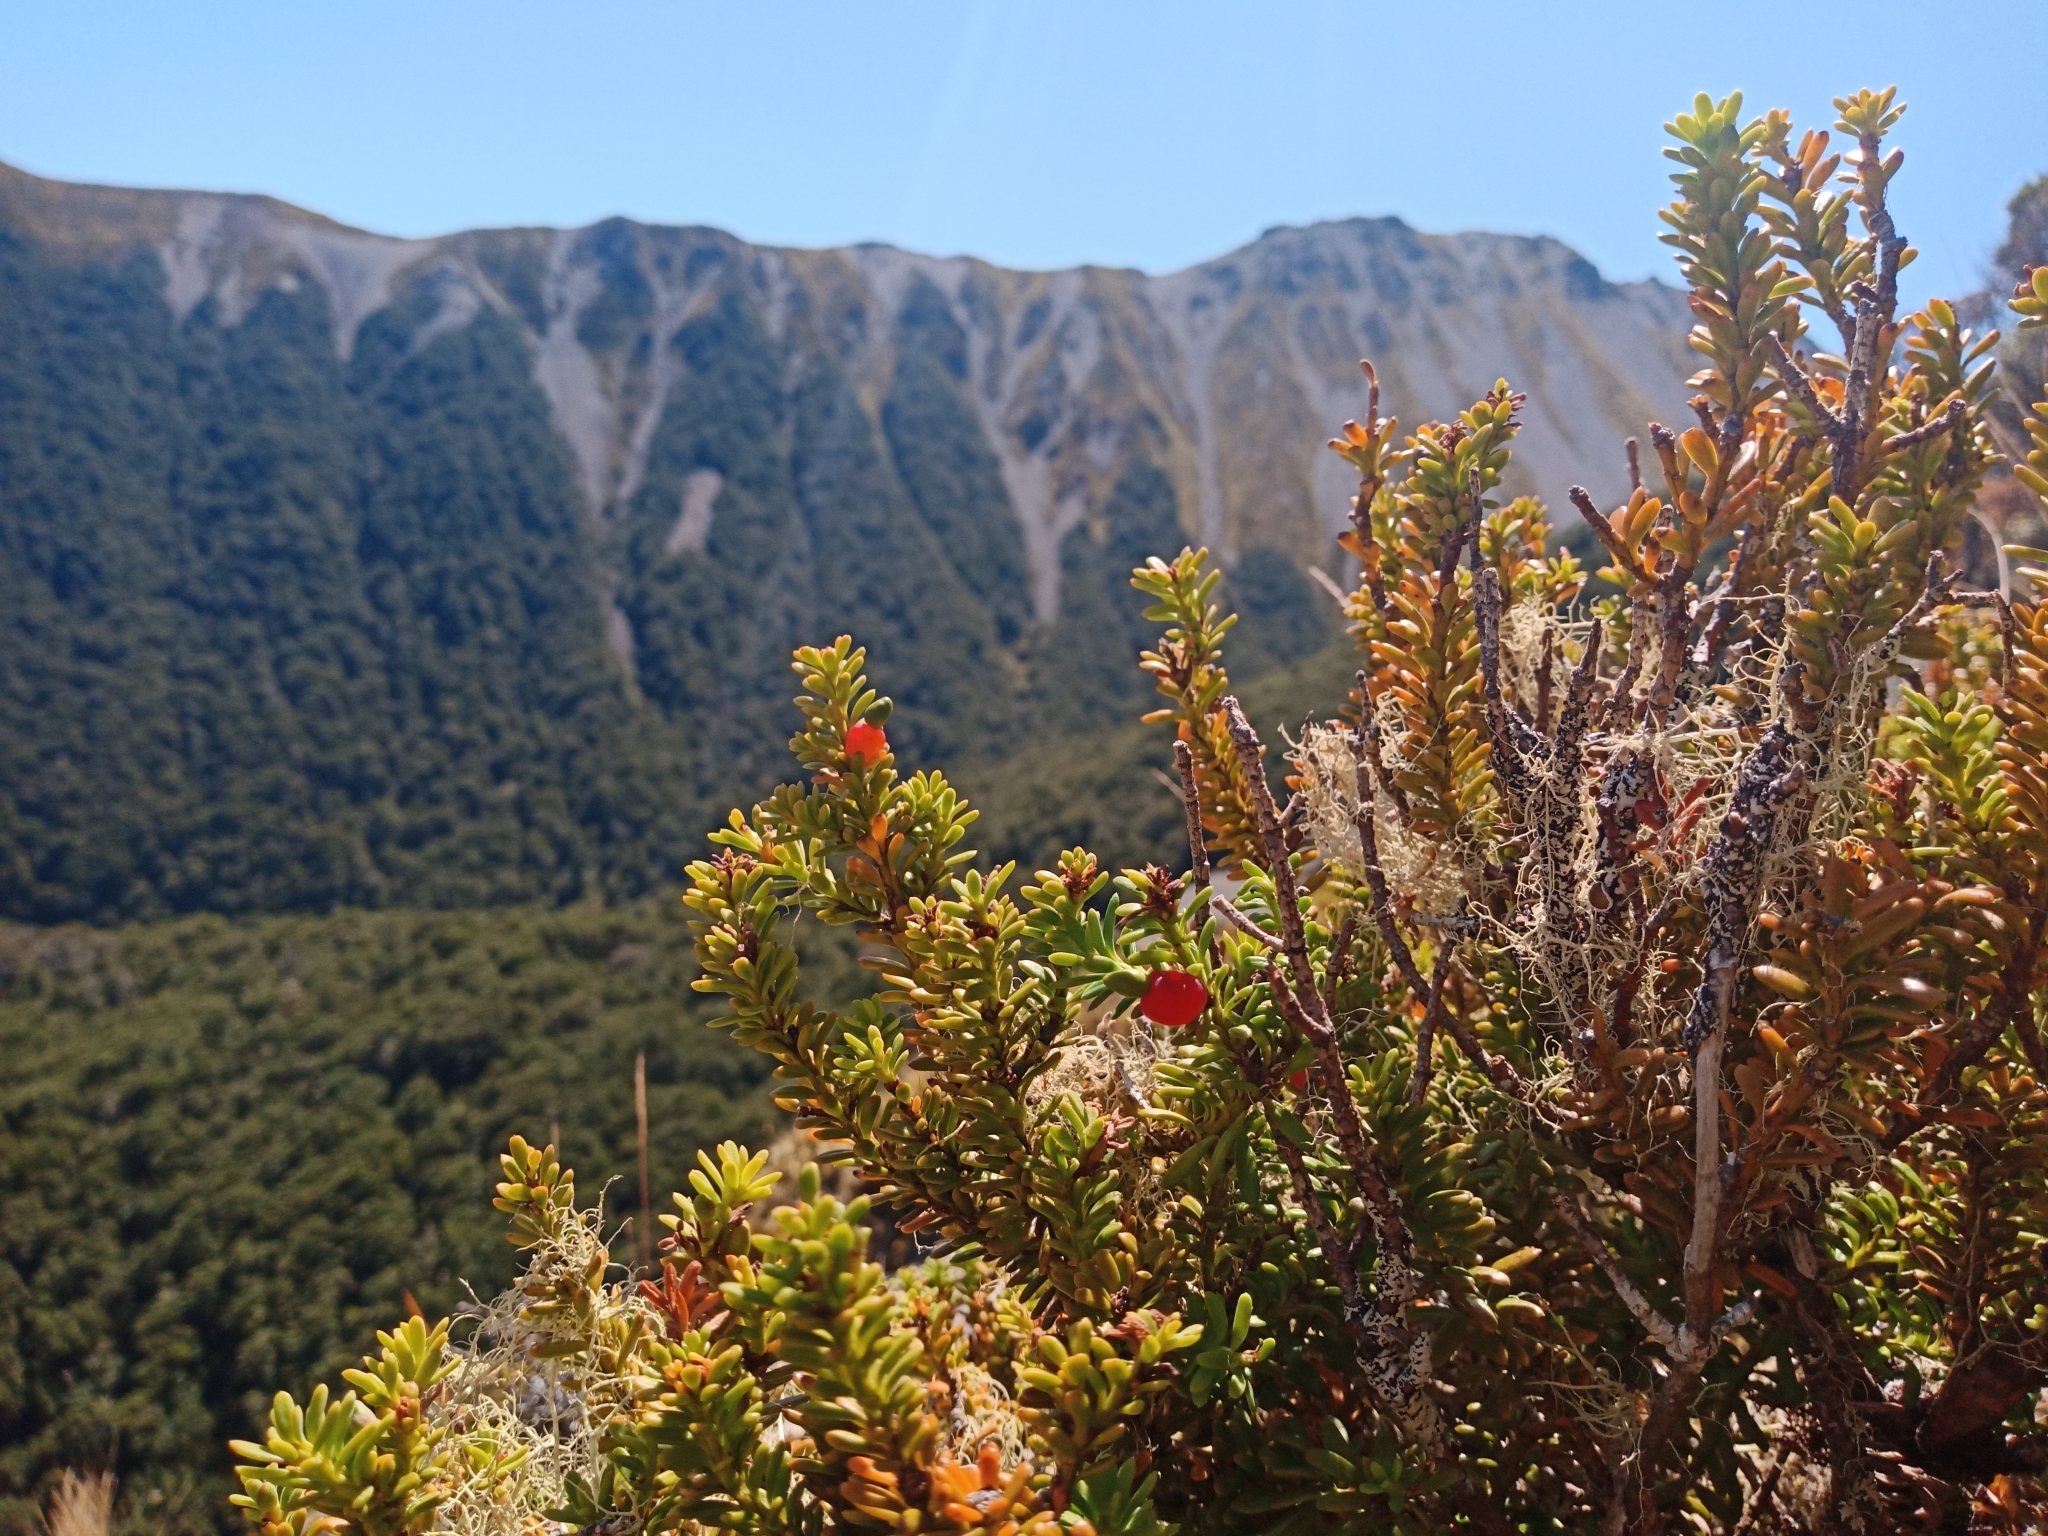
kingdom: Plantae
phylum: Tracheophyta
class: Pinopsida
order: Pinales
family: Podocarpaceae
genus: Podocarpus
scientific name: Podocarpus nivalis
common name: Alpine totara
